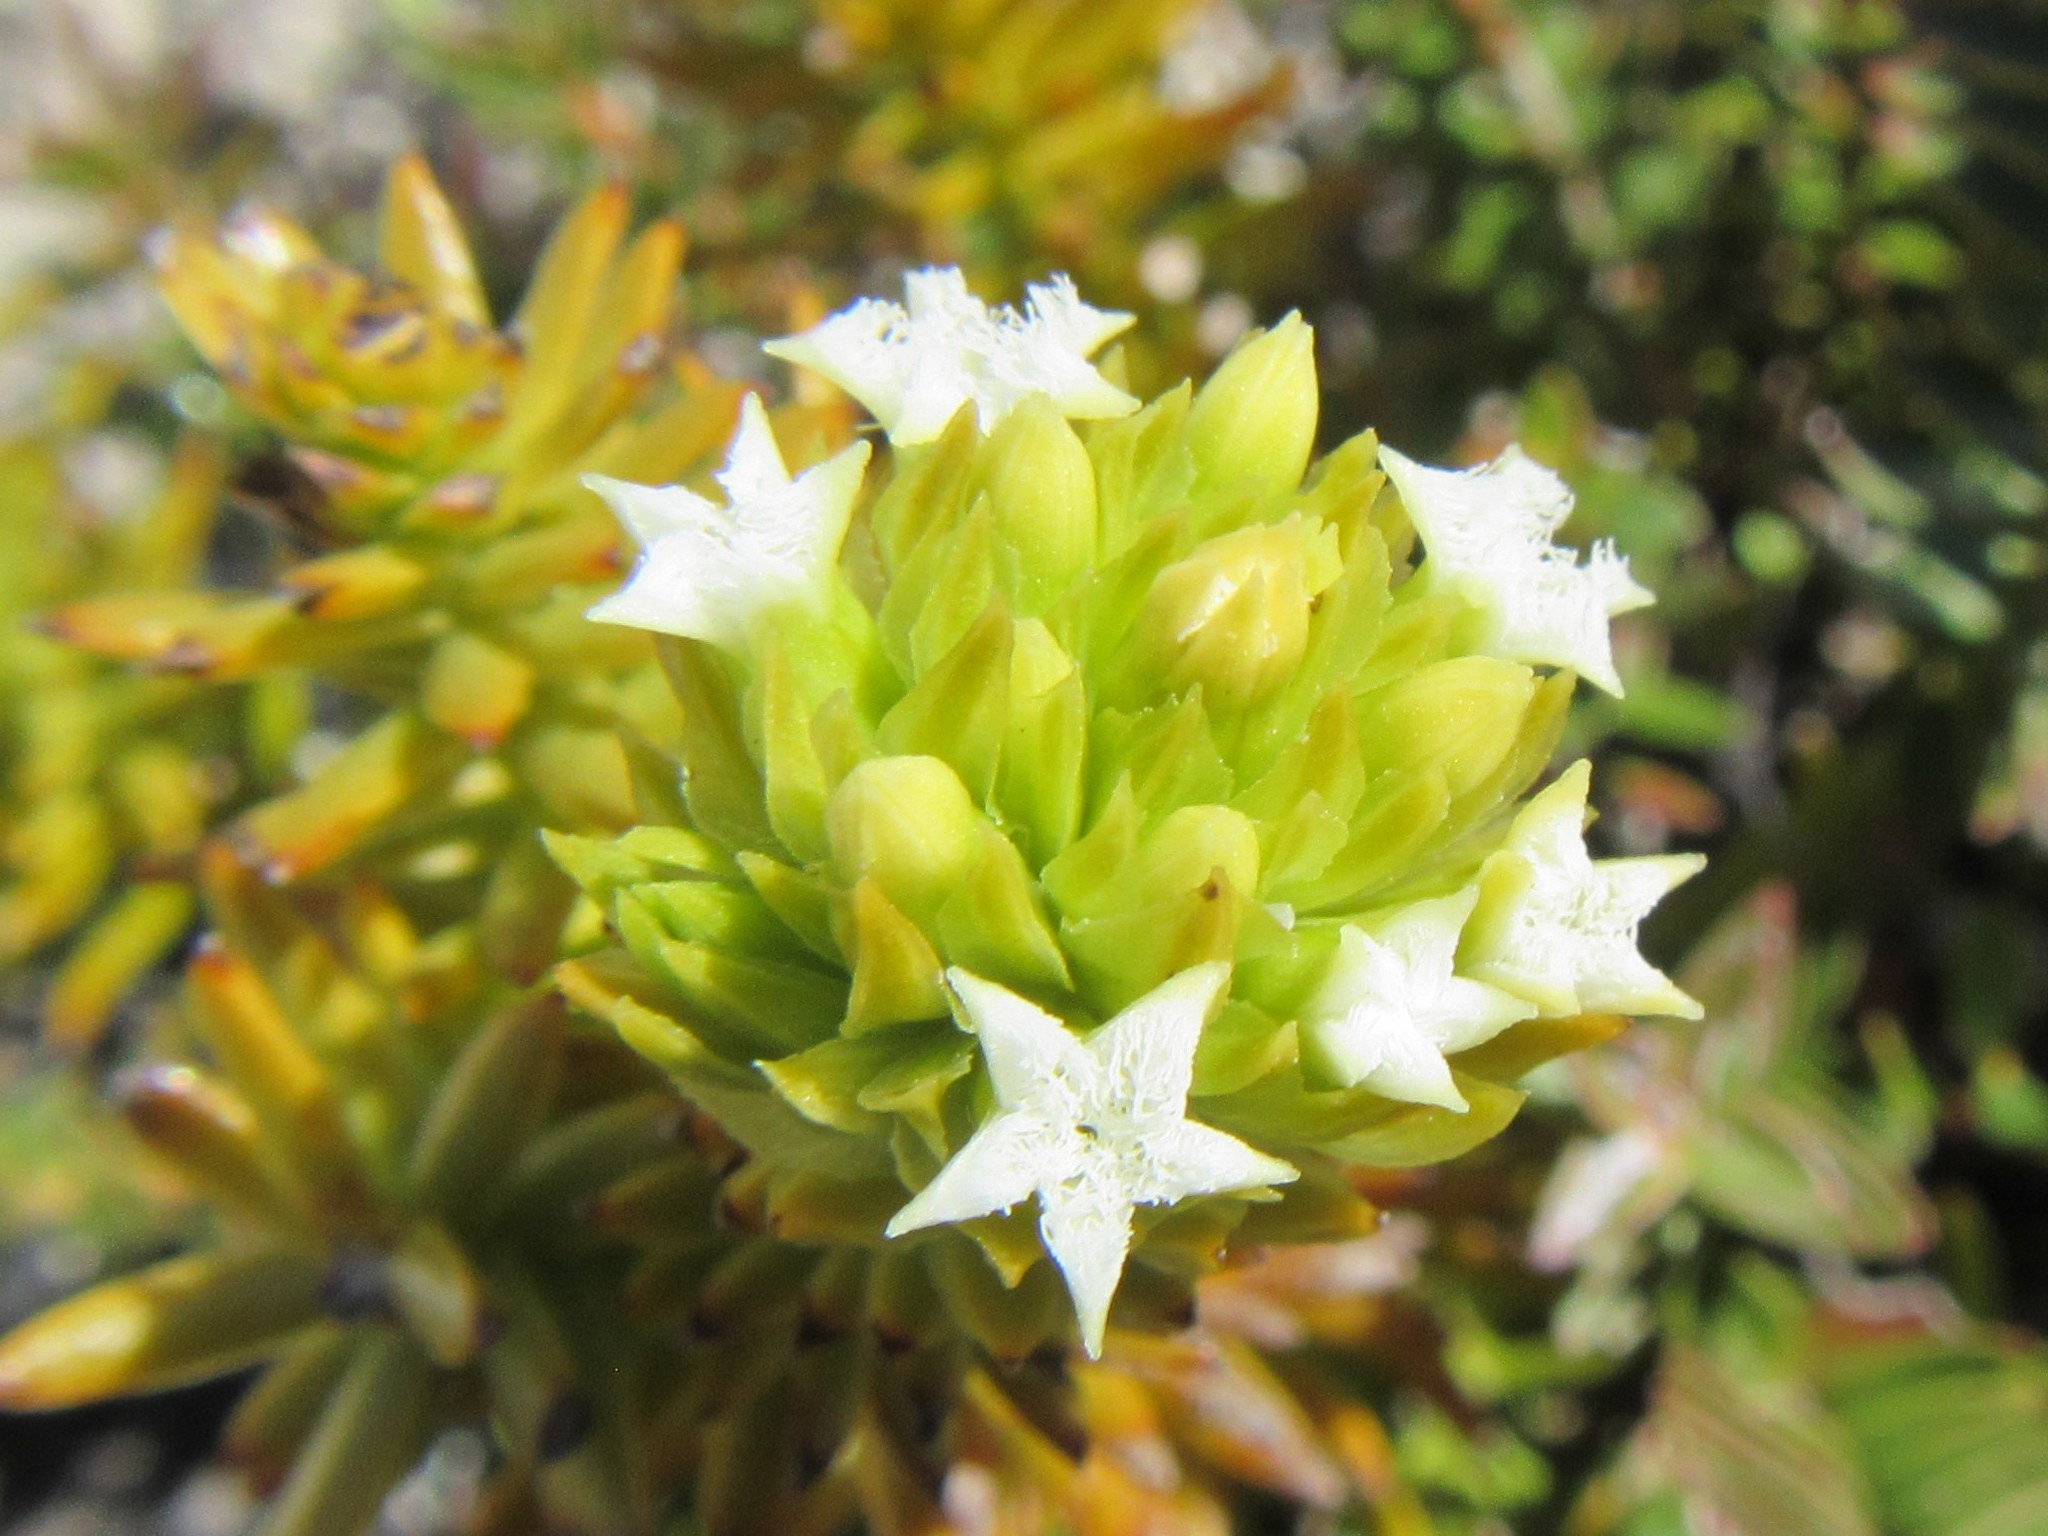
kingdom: Plantae
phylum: Tracheophyta
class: Magnoliopsida
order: Santalales
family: Thesiaceae
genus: Thesium
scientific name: Thesium viridifolium
